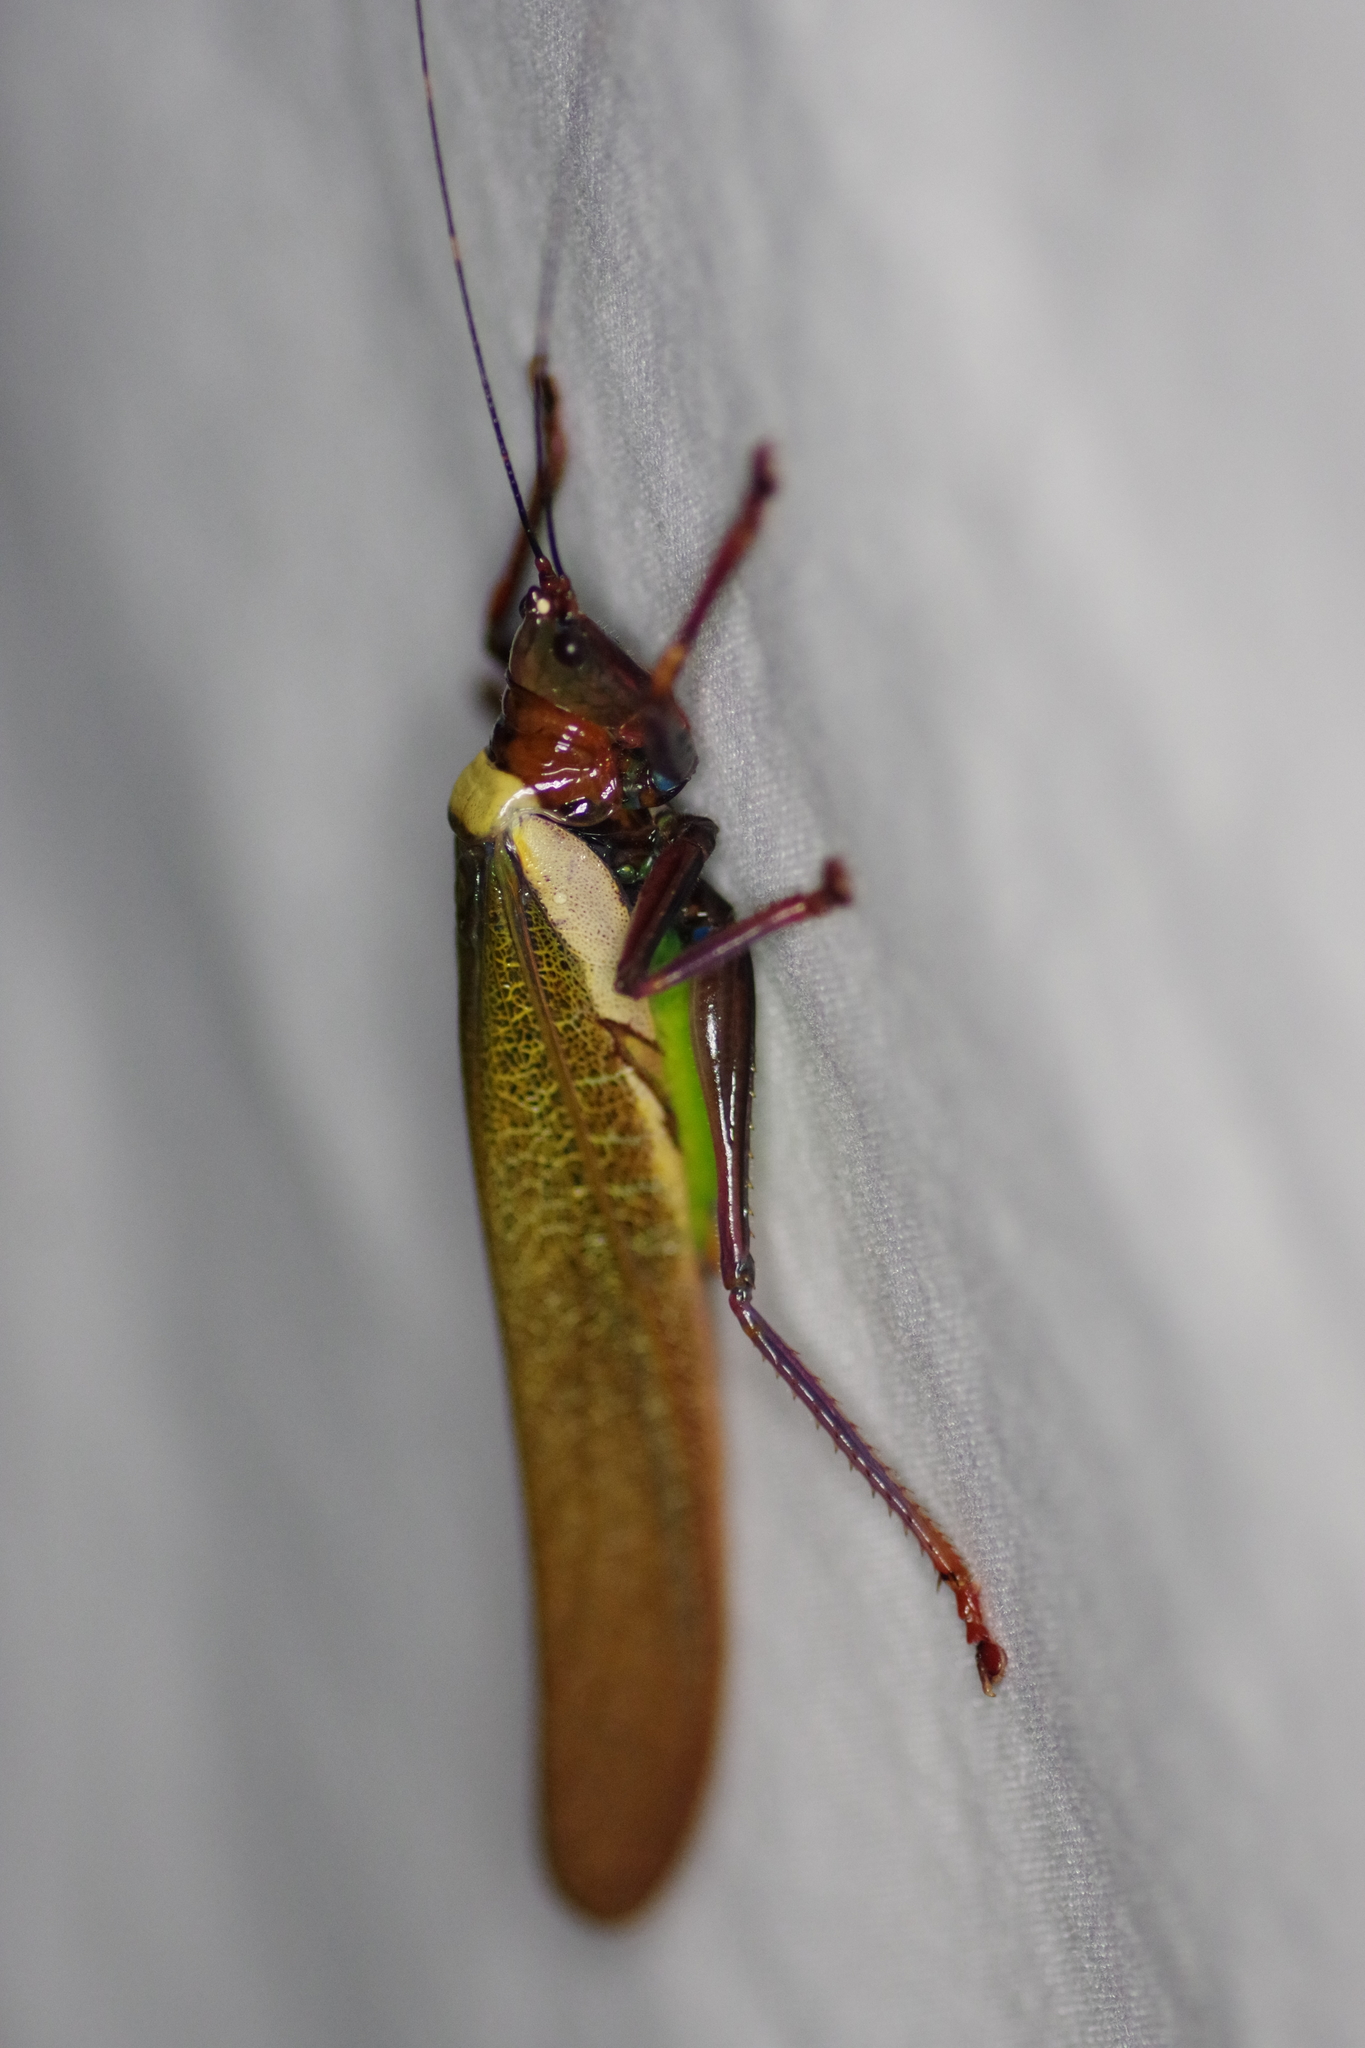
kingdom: Animalia
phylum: Arthropoda
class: Insecta
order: Orthoptera
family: Tettigoniidae
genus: Moncheca
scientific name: Moncheca elegans
